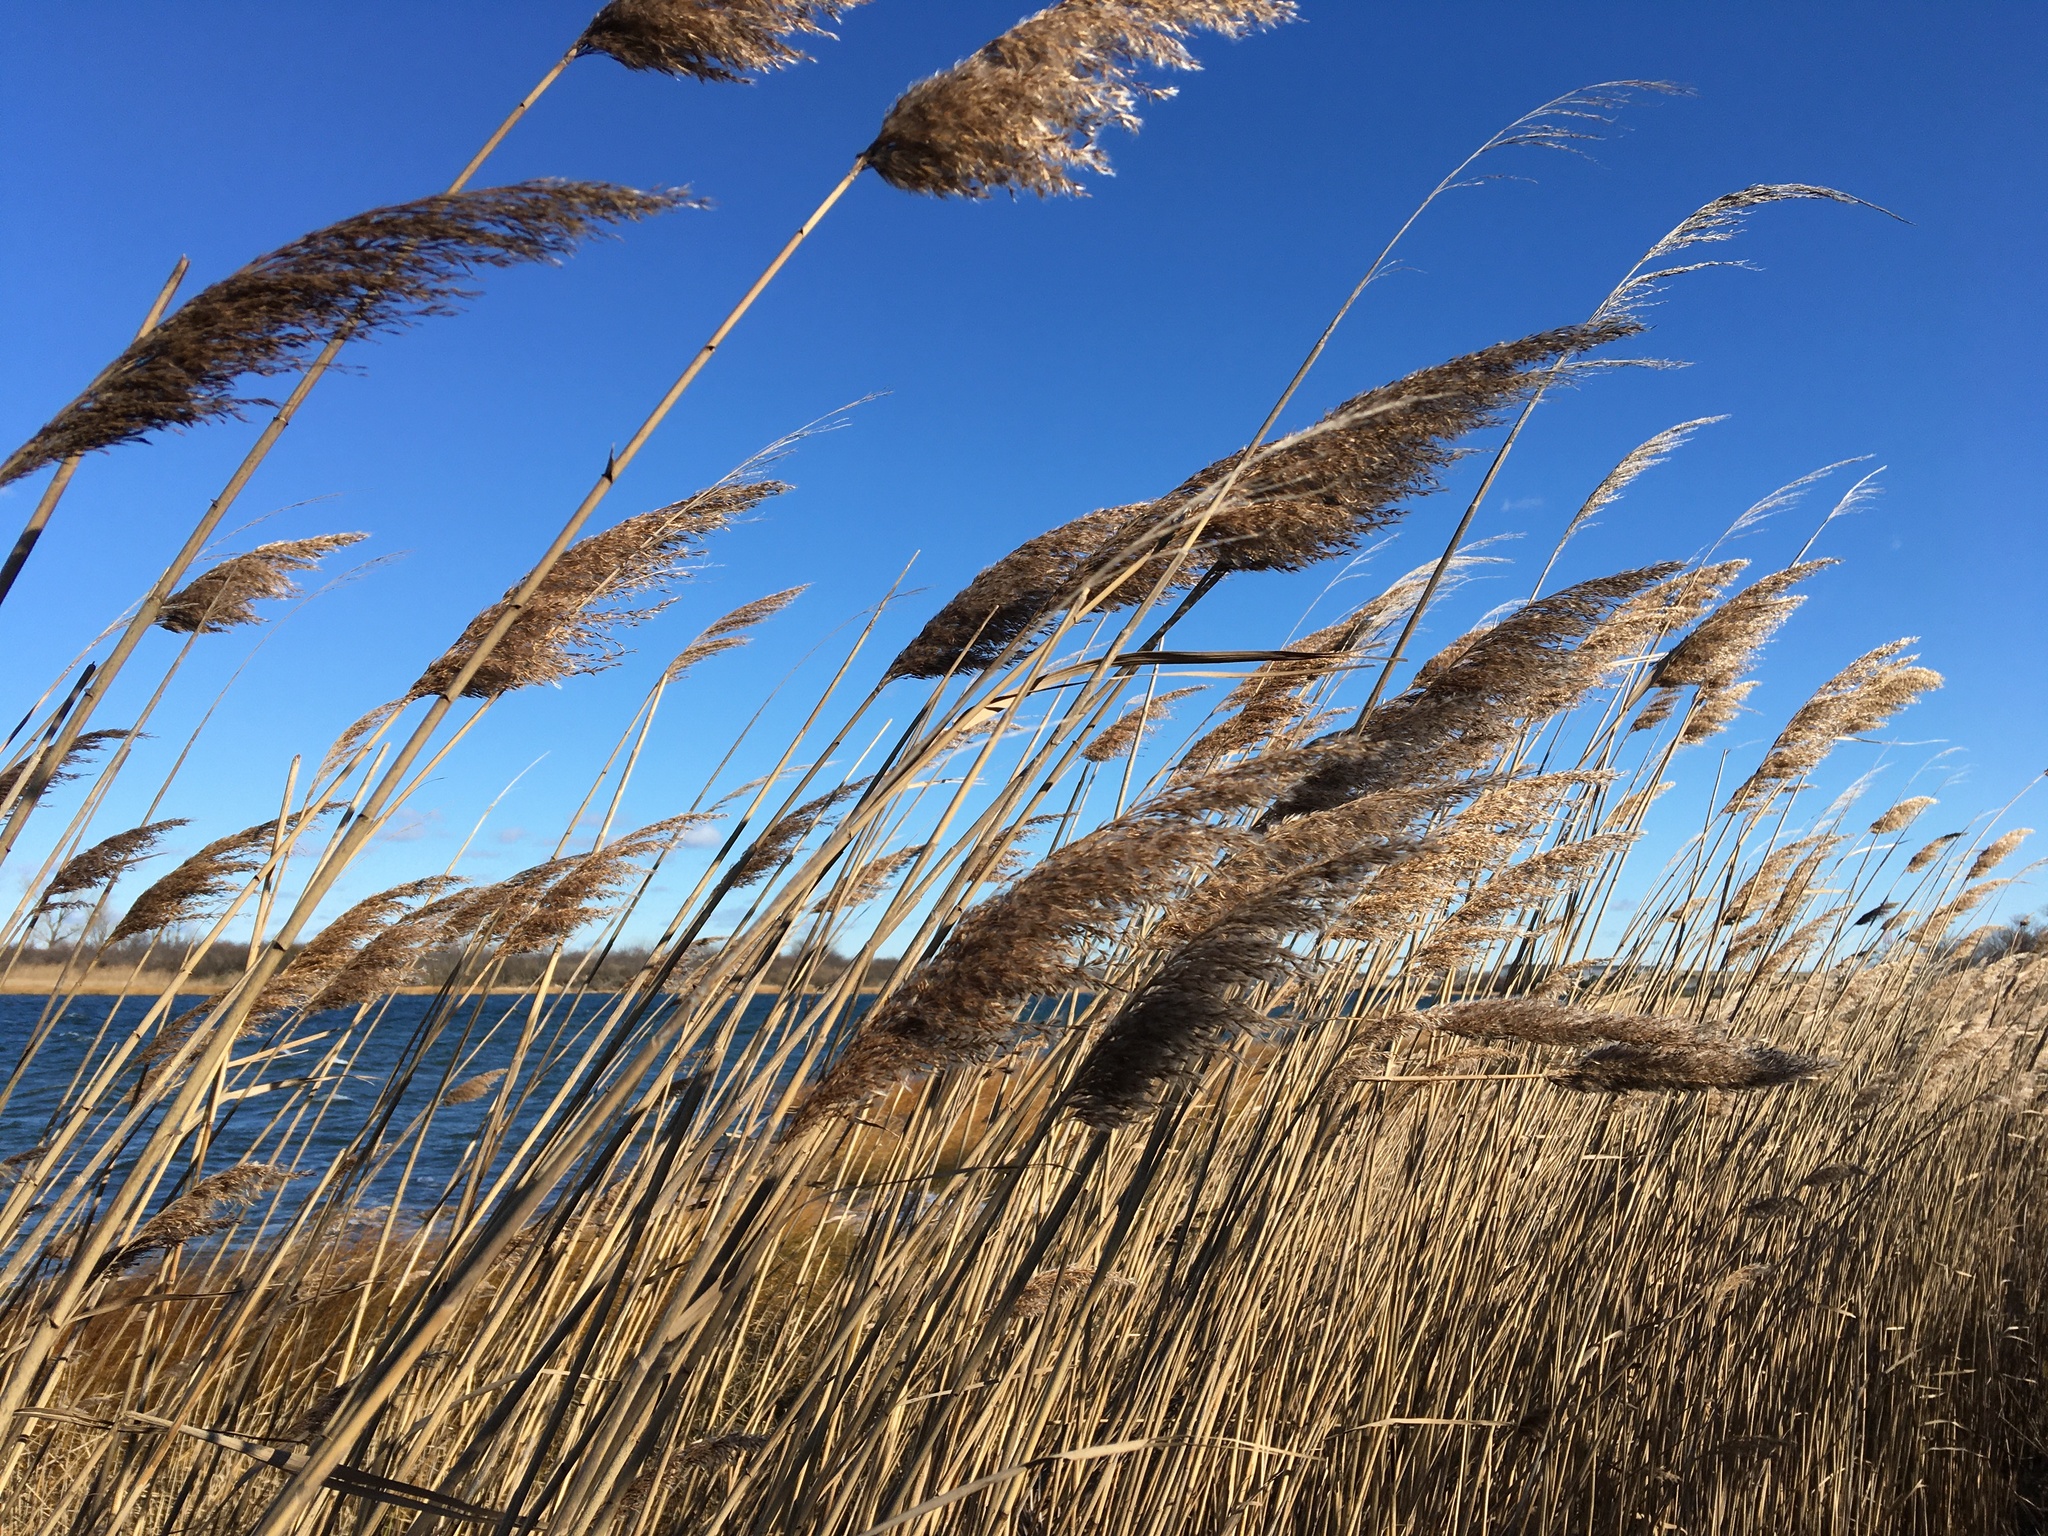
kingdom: Plantae
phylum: Tracheophyta
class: Liliopsida
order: Poales
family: Poaceae
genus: Phragmites
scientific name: Phragmites australis
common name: Common reed
